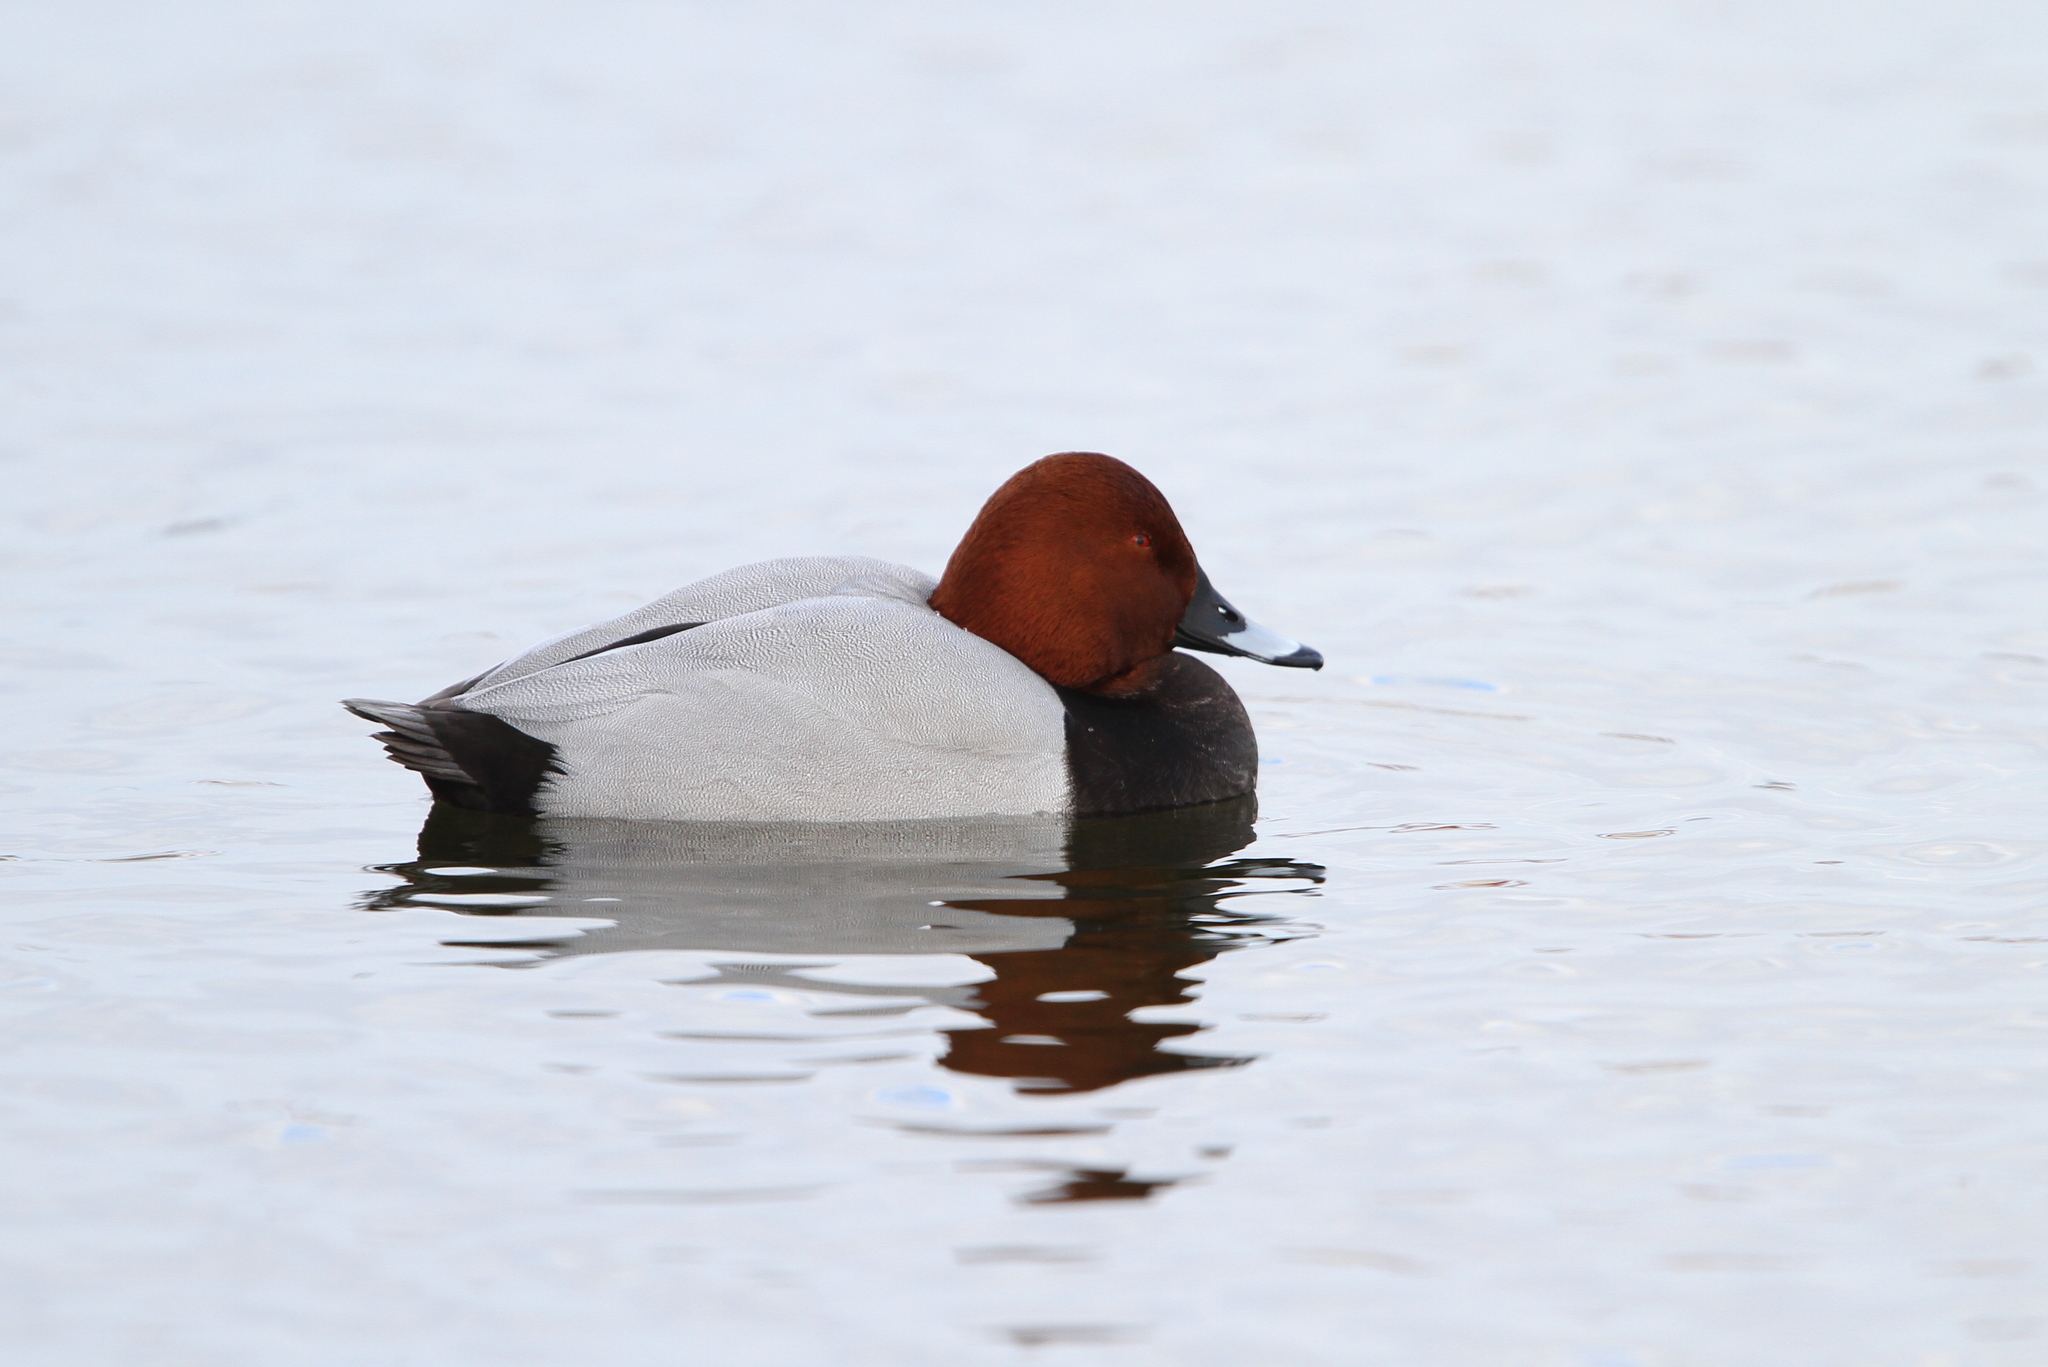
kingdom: Animalia
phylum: Chordata
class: Aves
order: Anseriformes
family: Anatidae
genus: Aythya
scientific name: Aythya ferina
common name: Common pochard
